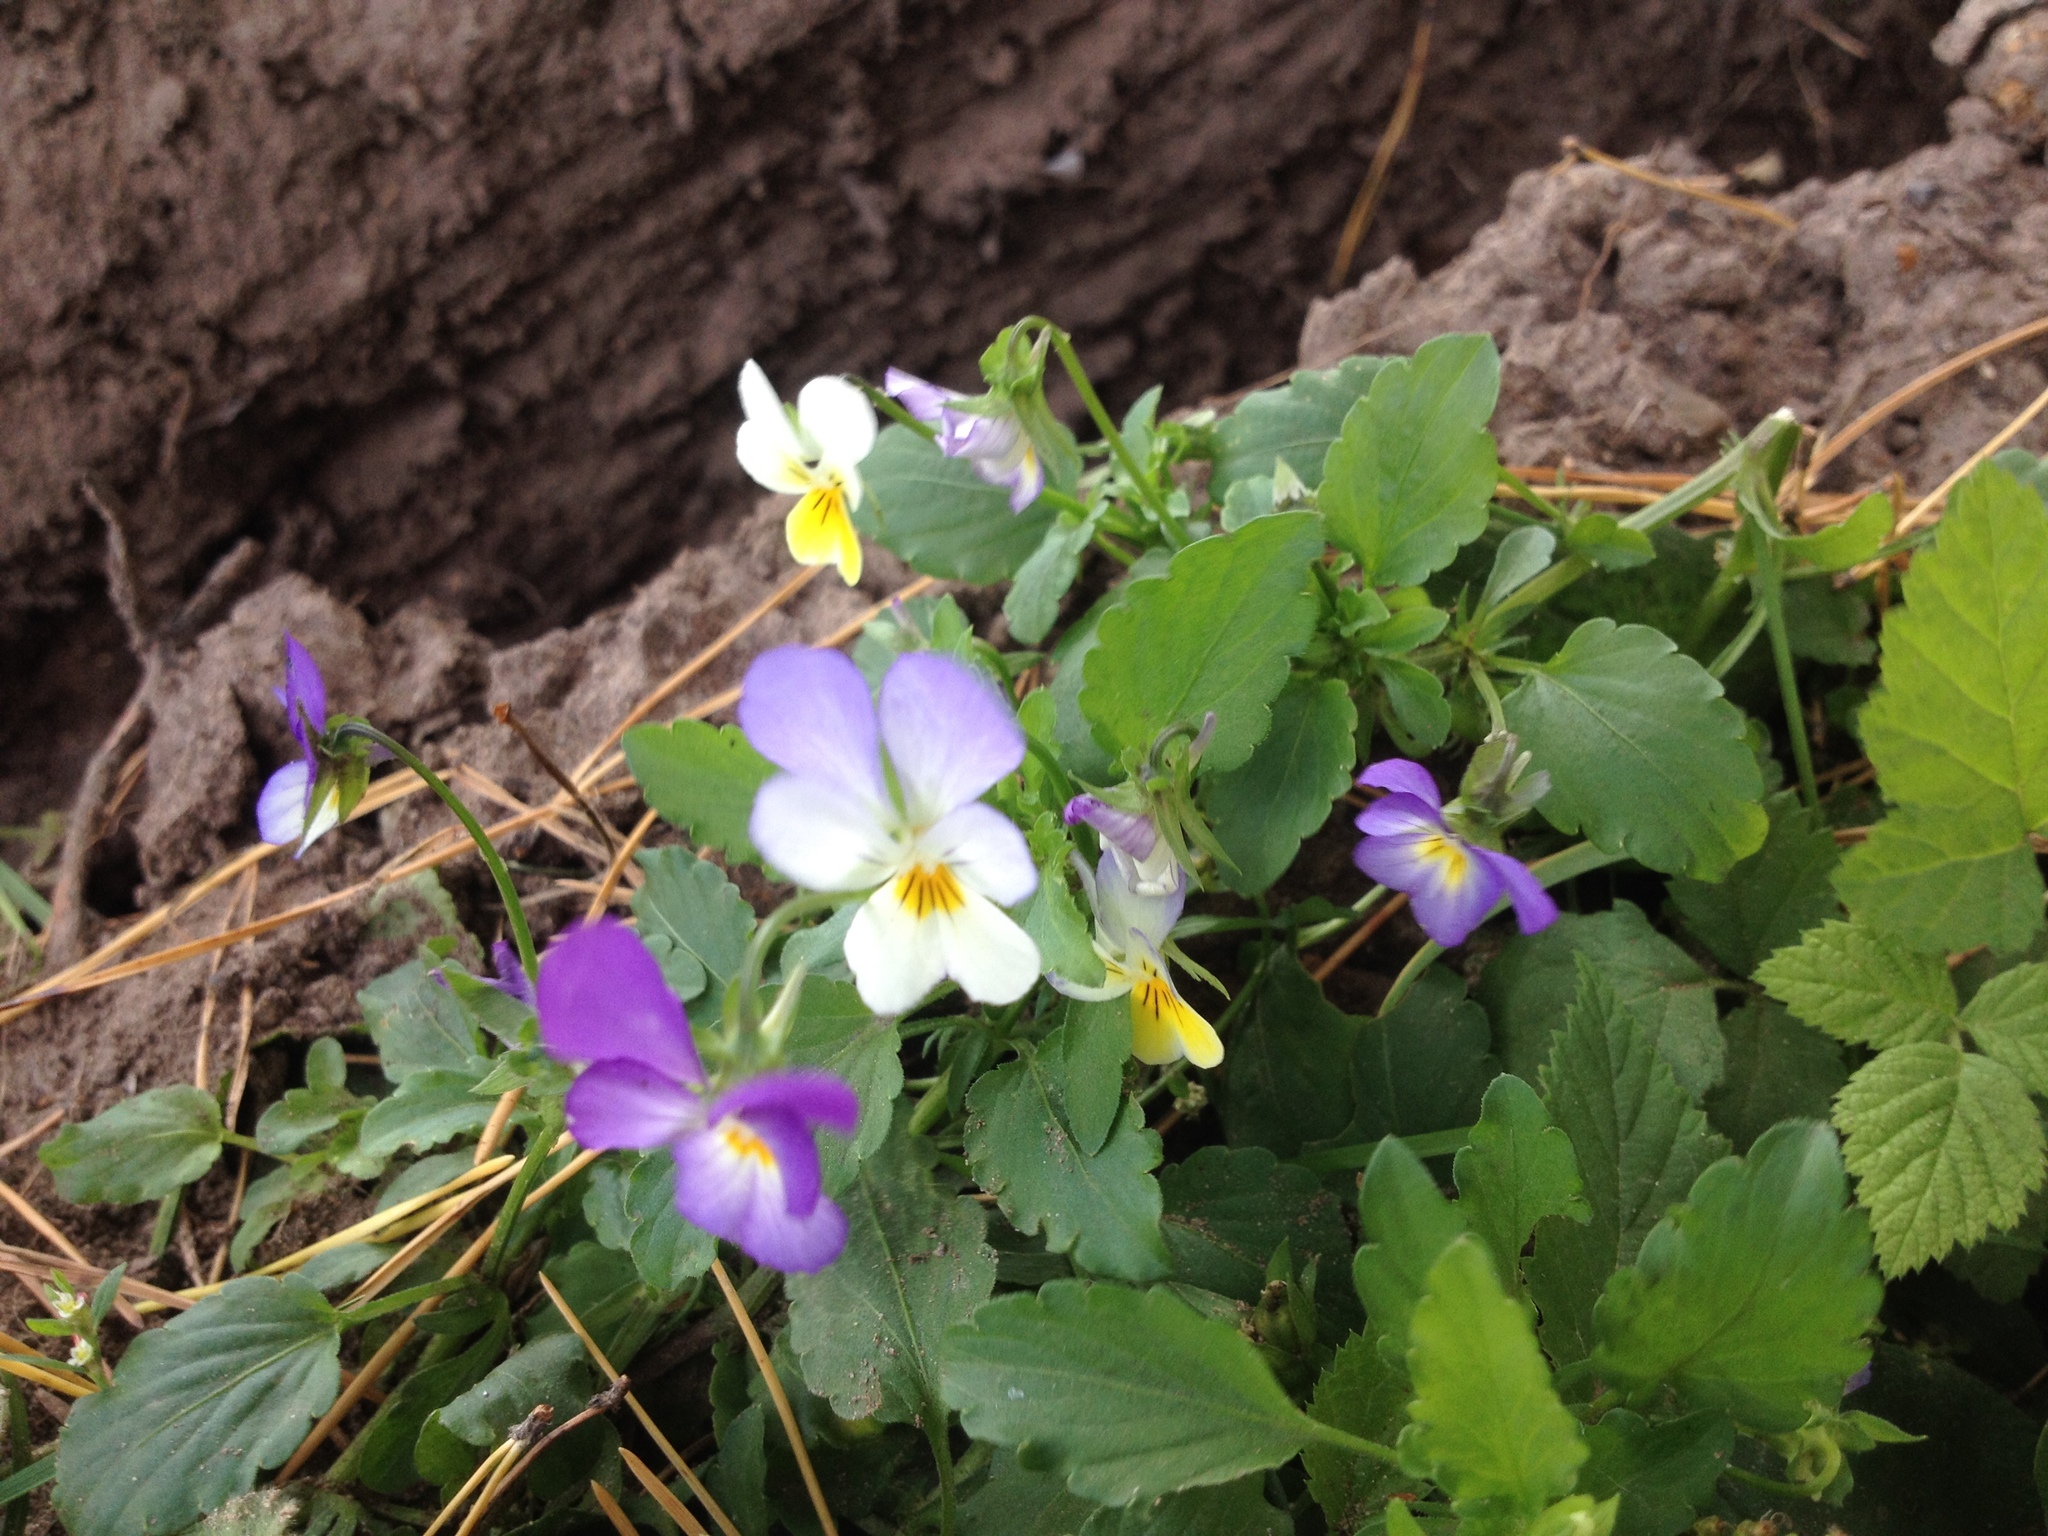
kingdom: Plantae
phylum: Tracheophyta
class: Magnoliopsida
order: Malpighiales
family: Violaceae
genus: Viola
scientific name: Viola tricolor
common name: Pansy
